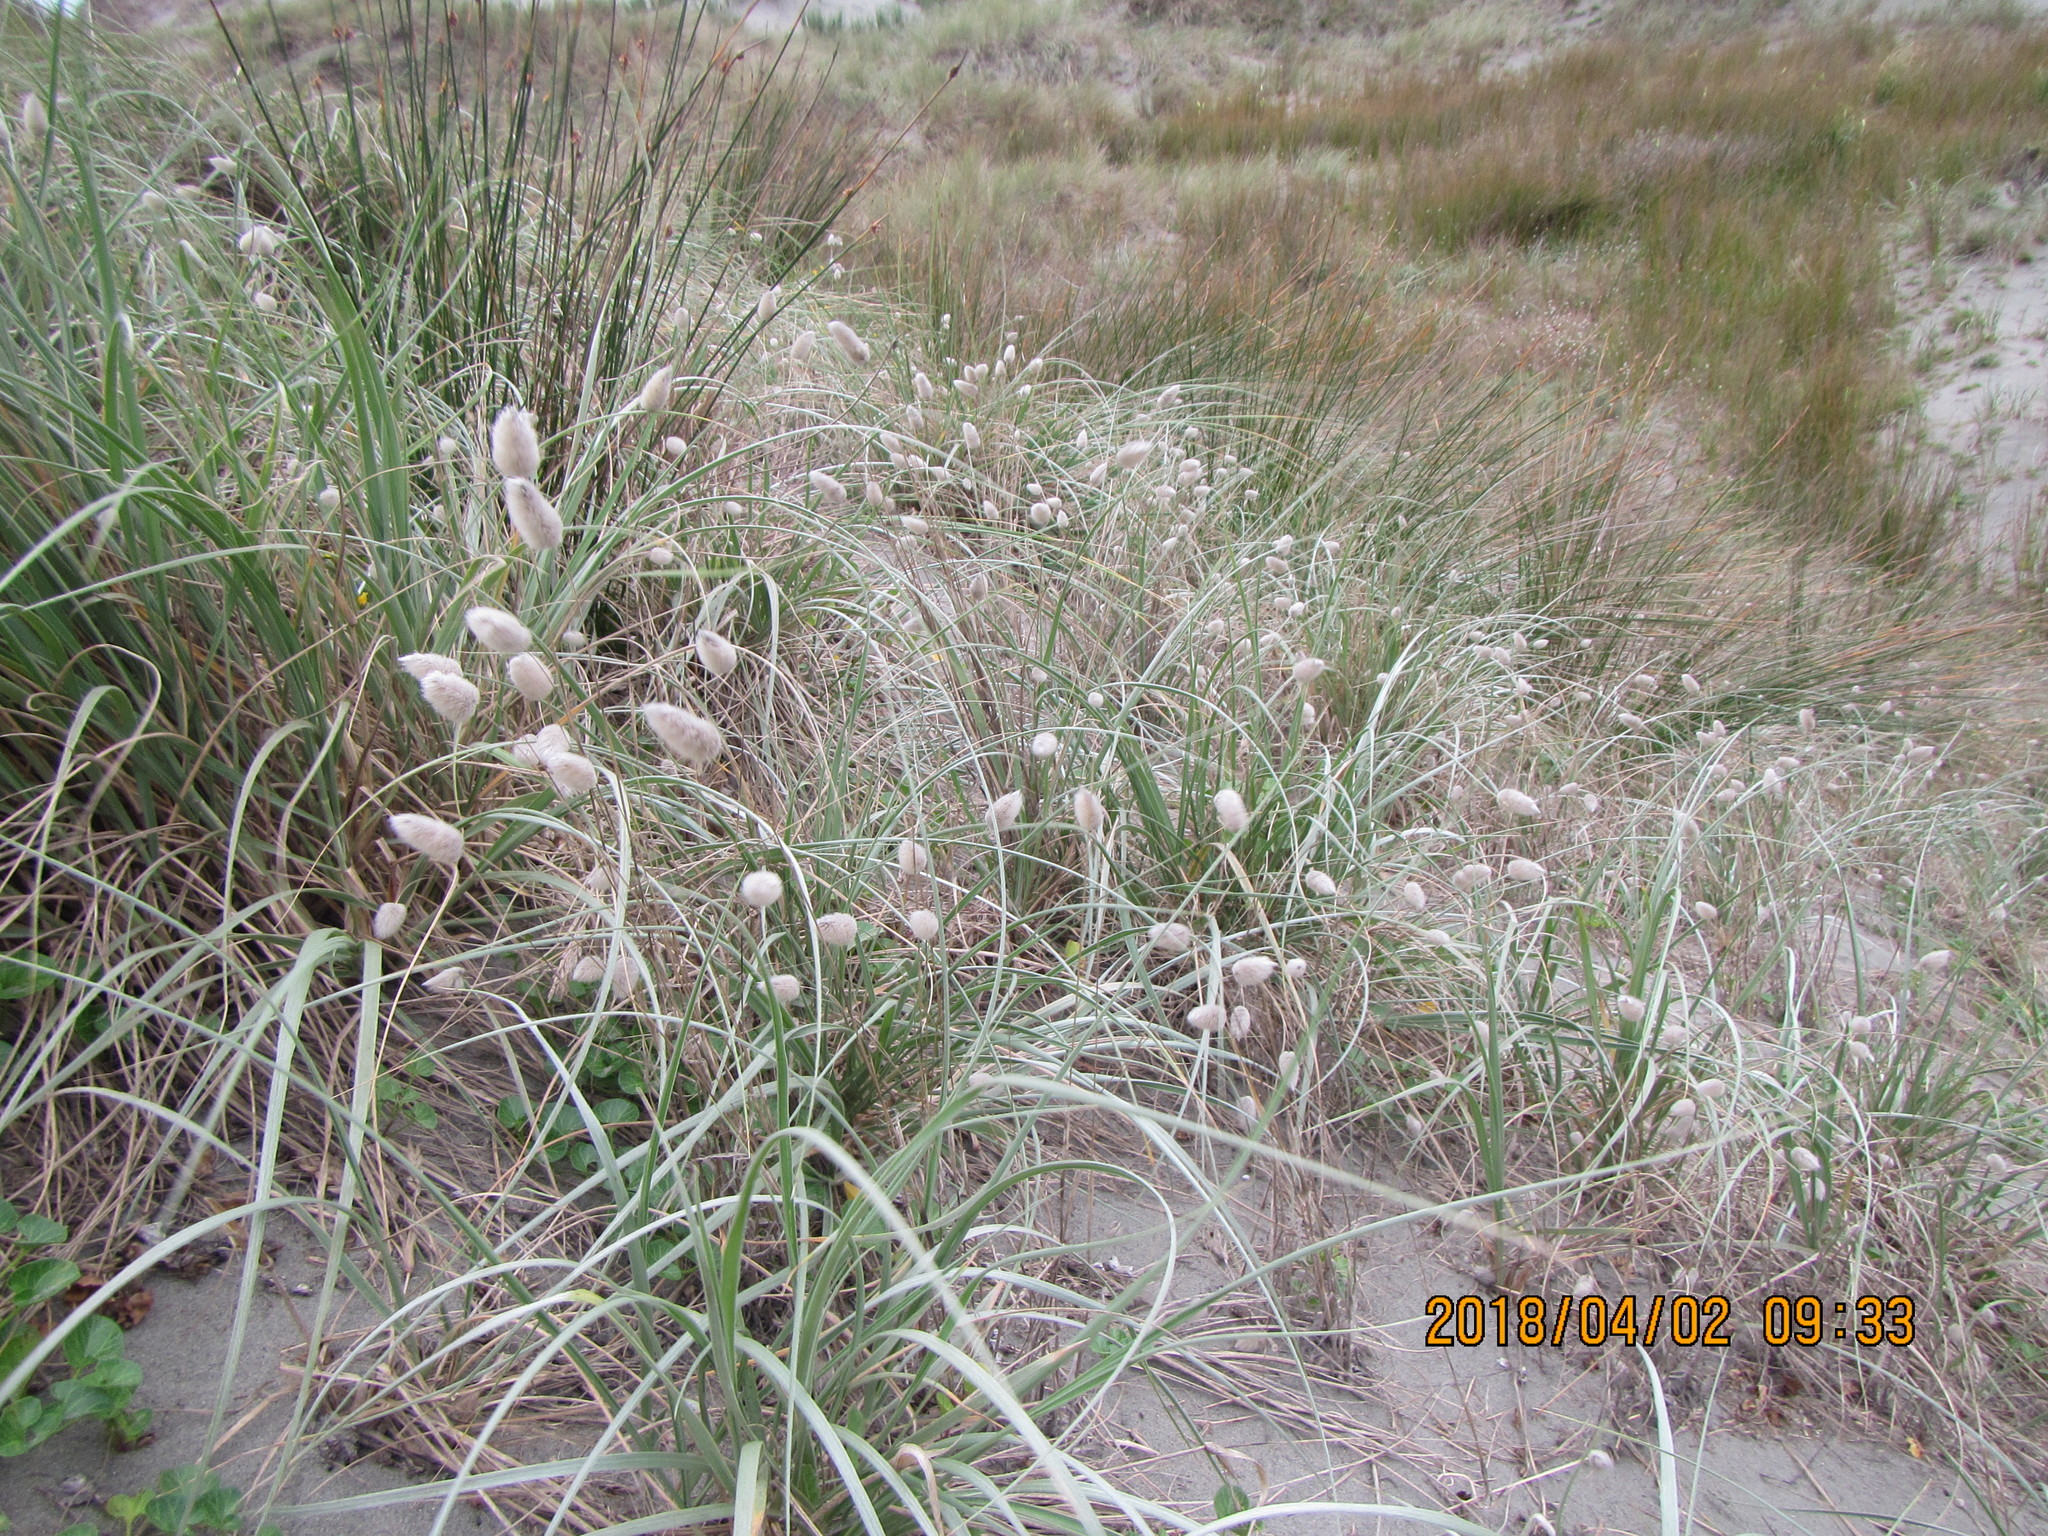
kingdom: Plantae
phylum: Tracheophyta
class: Liliopsida
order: Poales
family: Poaceae
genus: Lagurus
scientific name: Lagurus ovatus
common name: Hare's-tail
